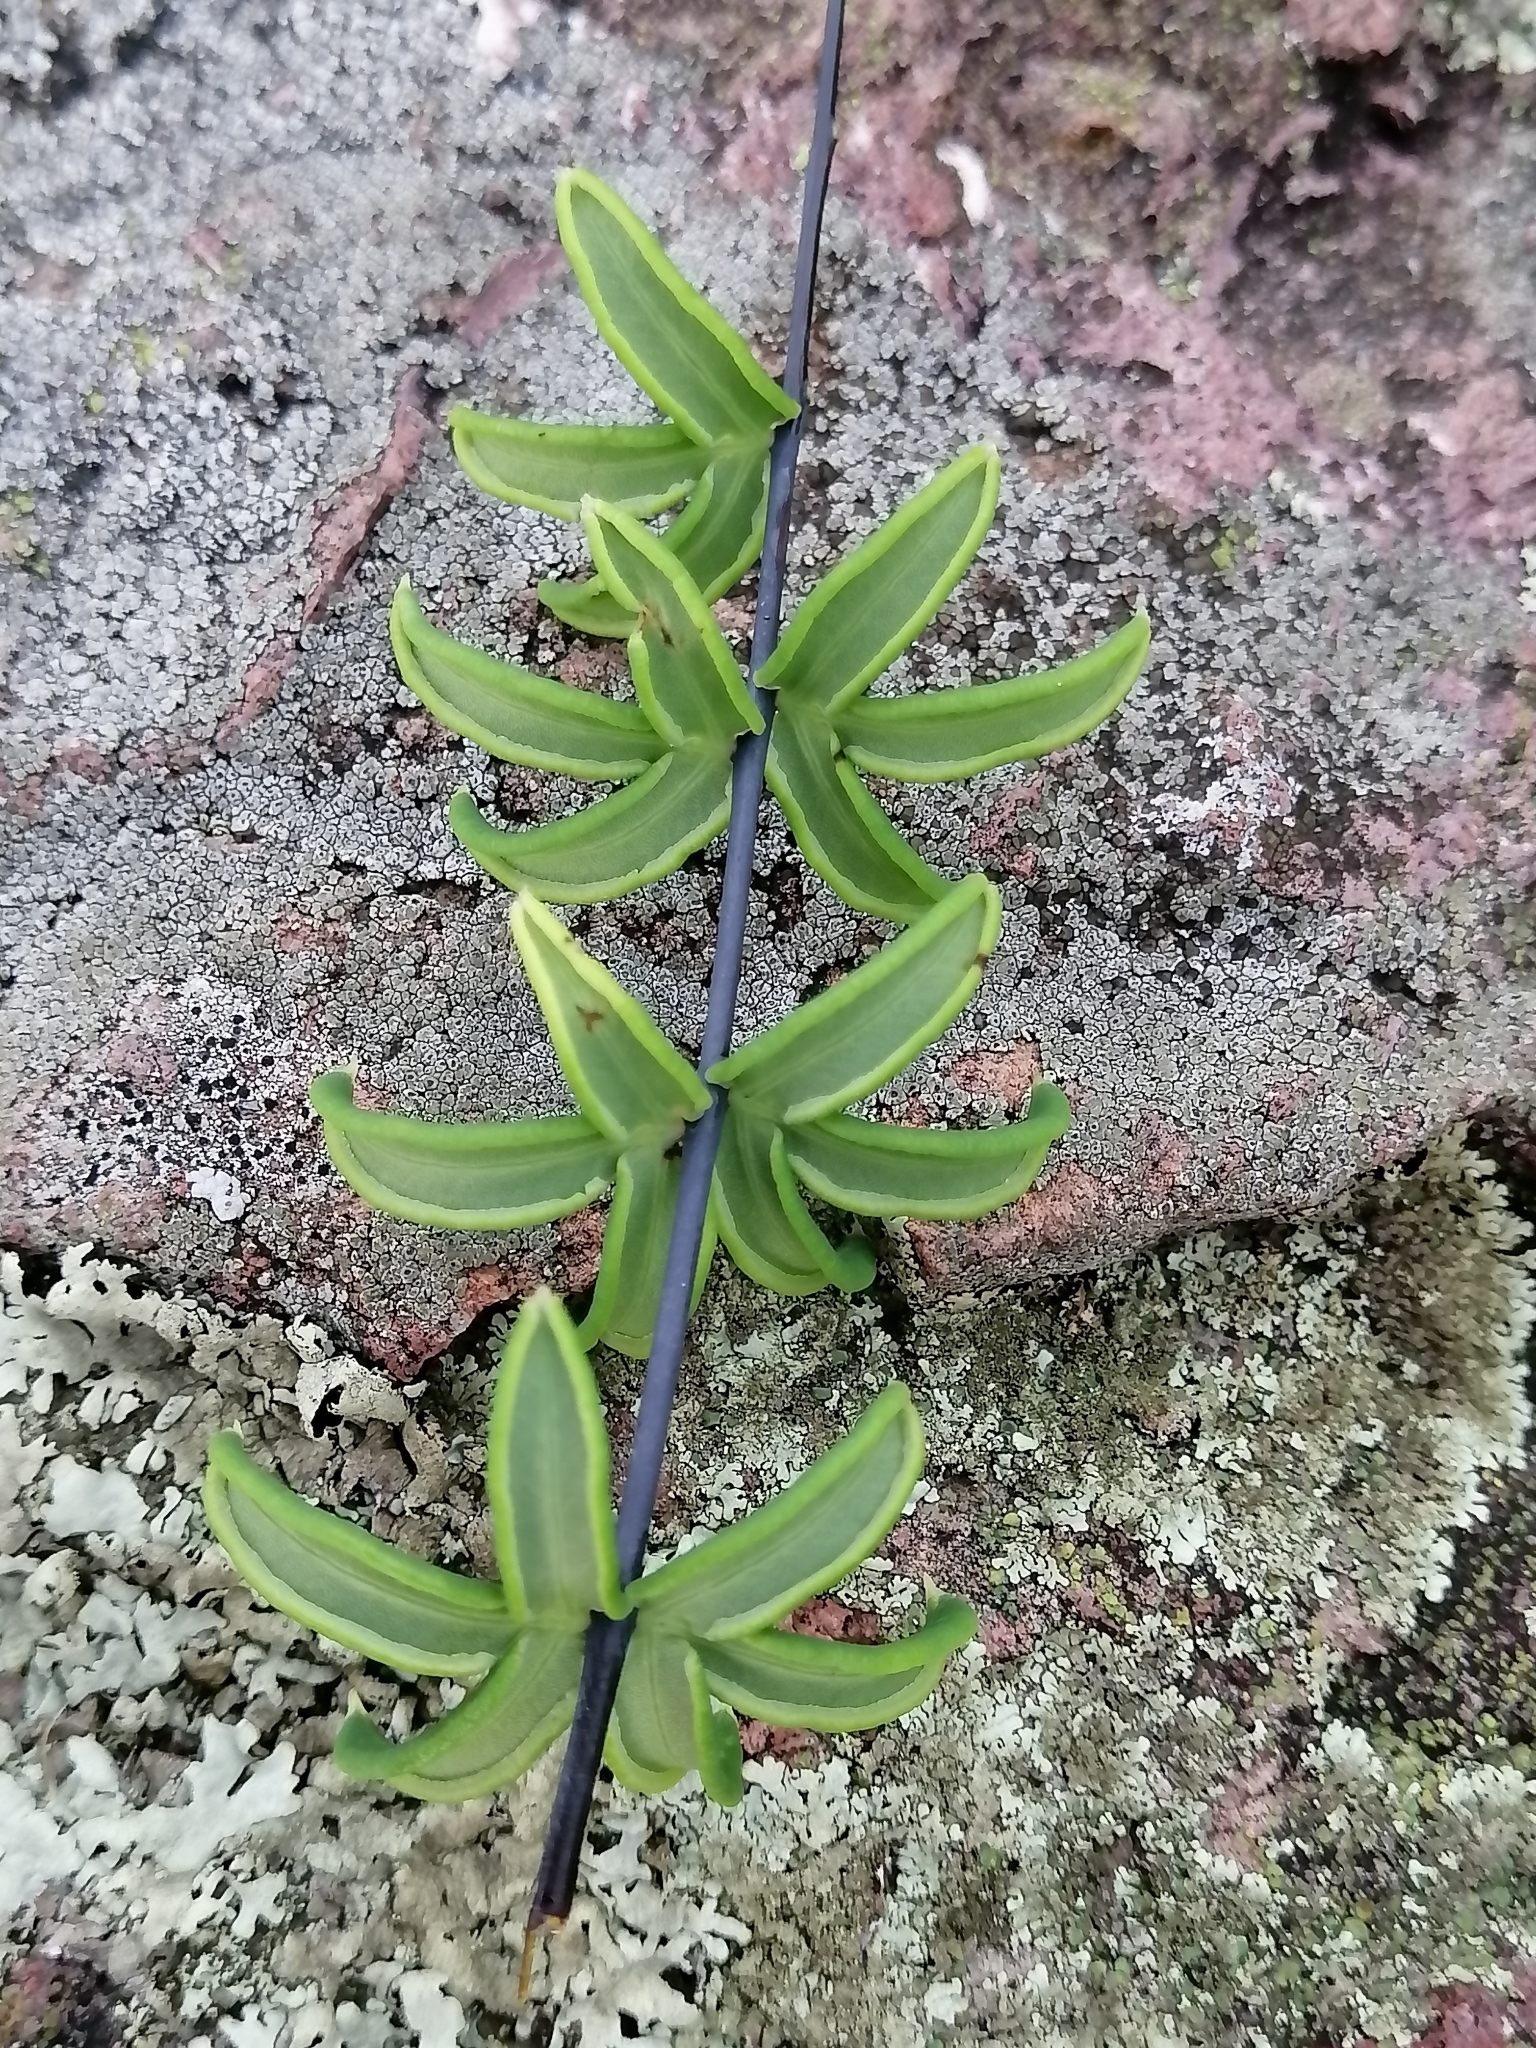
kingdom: Plantae
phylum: Tracheophyta
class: Polypodiopsida
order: Polypodiales
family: Pteridaceae
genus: Pellaea
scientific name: Pellaea ternifolia
